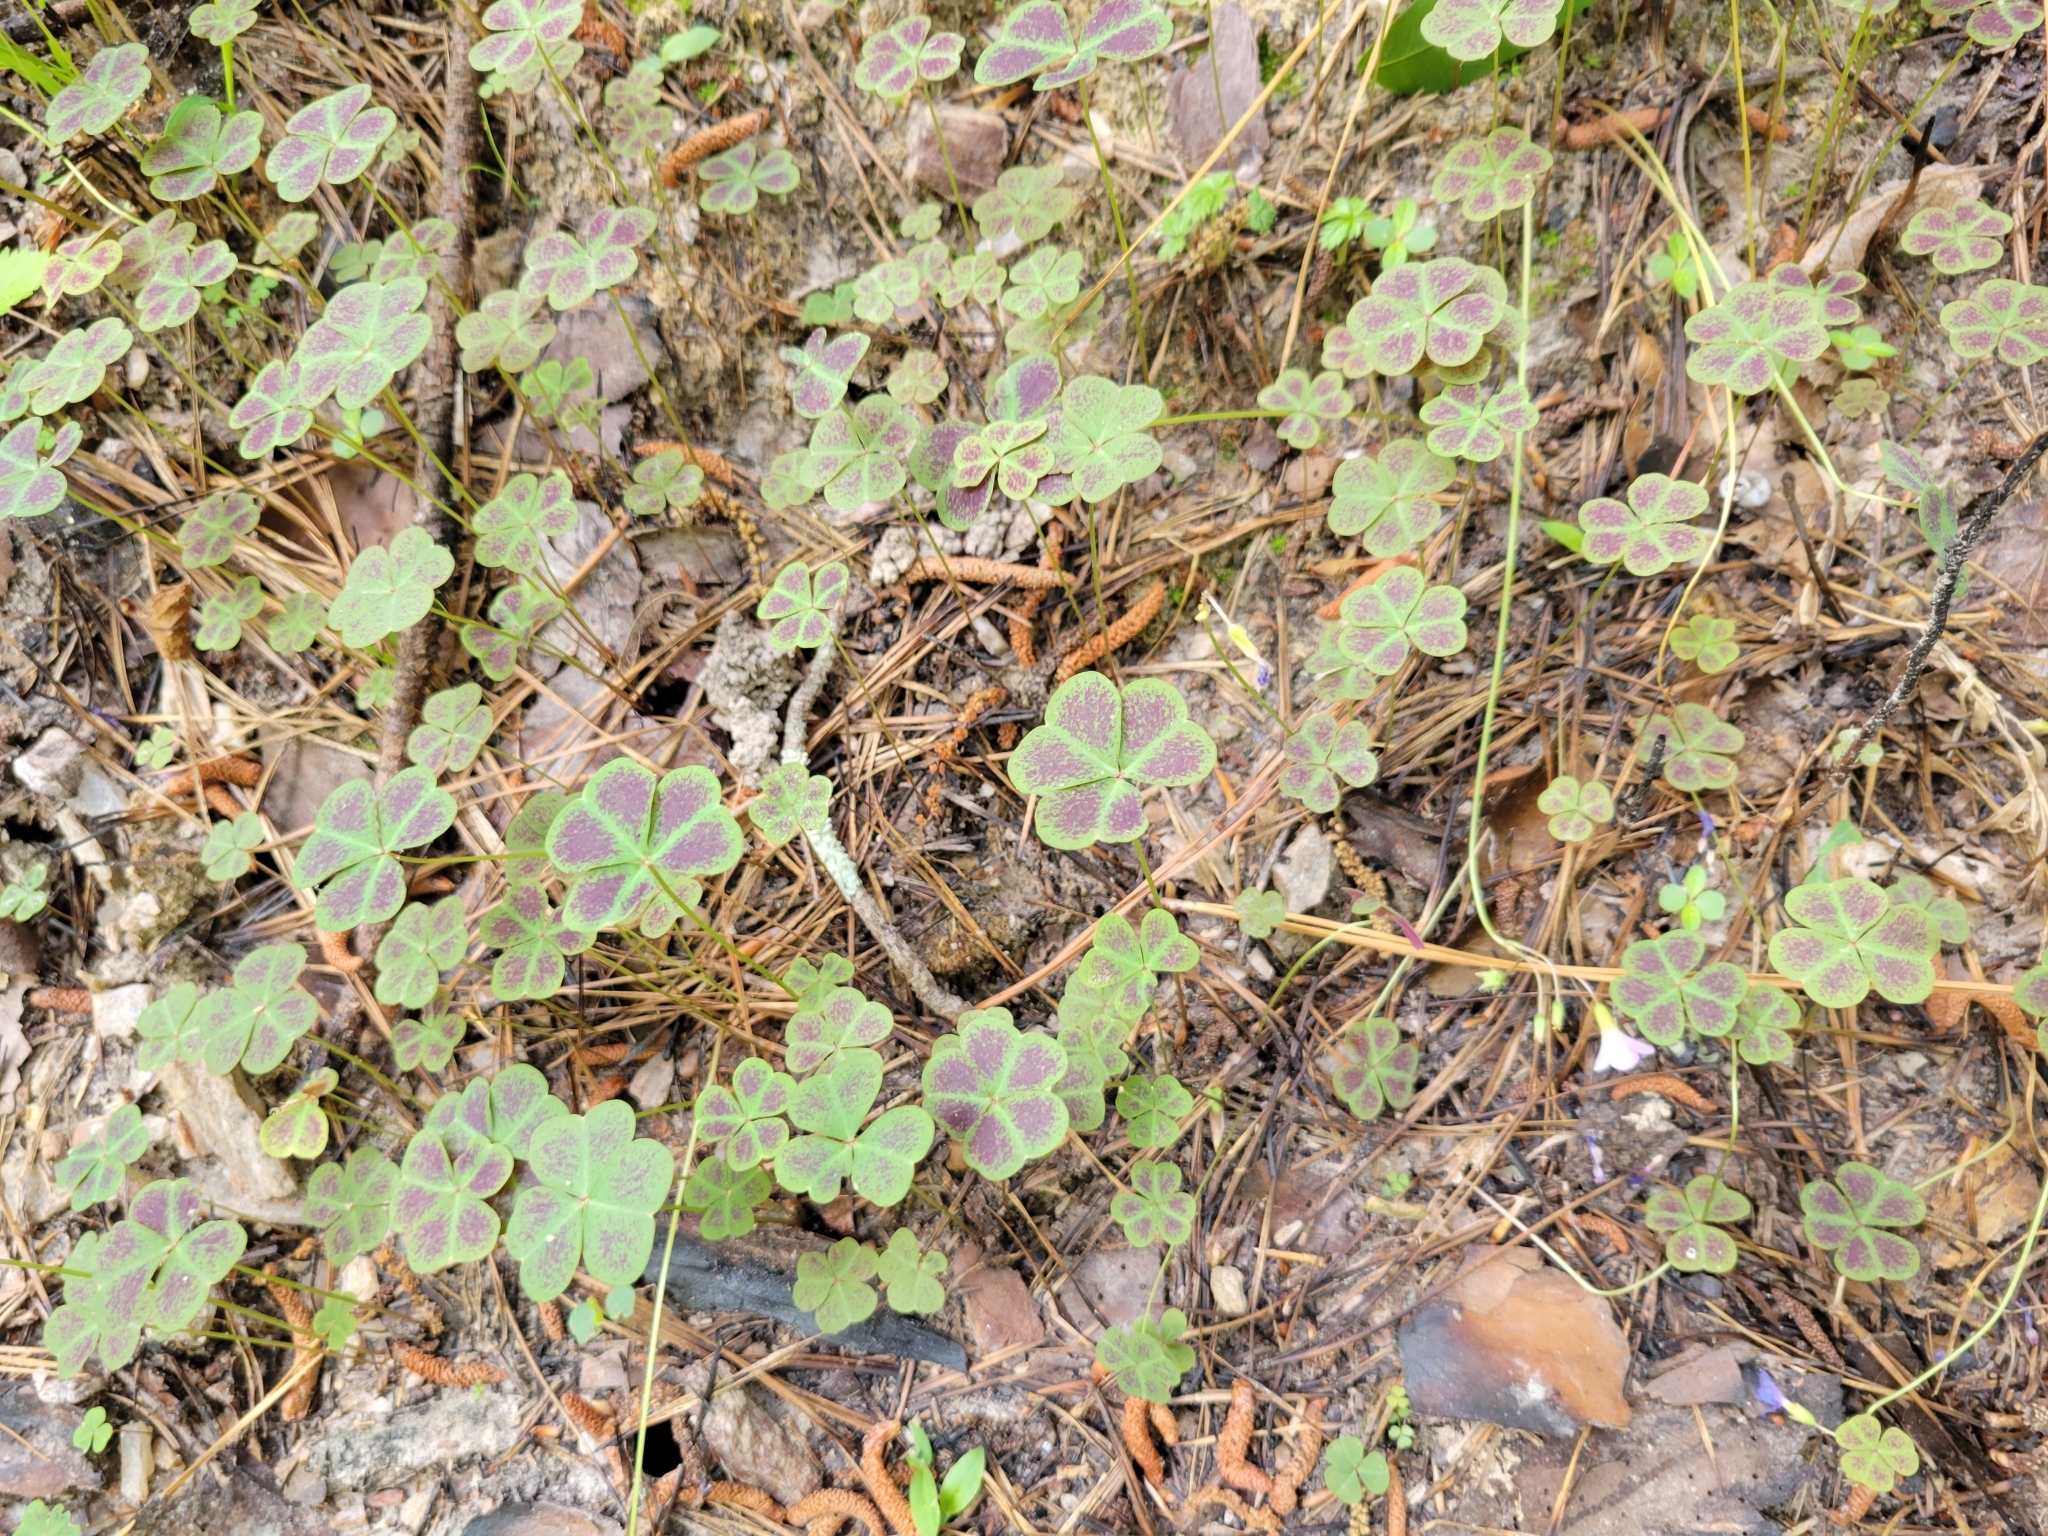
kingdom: Plantae
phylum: Tracheophyta
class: Magnoliopsida
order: Oxalidales
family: Oxalidaceae
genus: Oxalis
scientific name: Oxalis violacea
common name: Violet wood-sorrel
